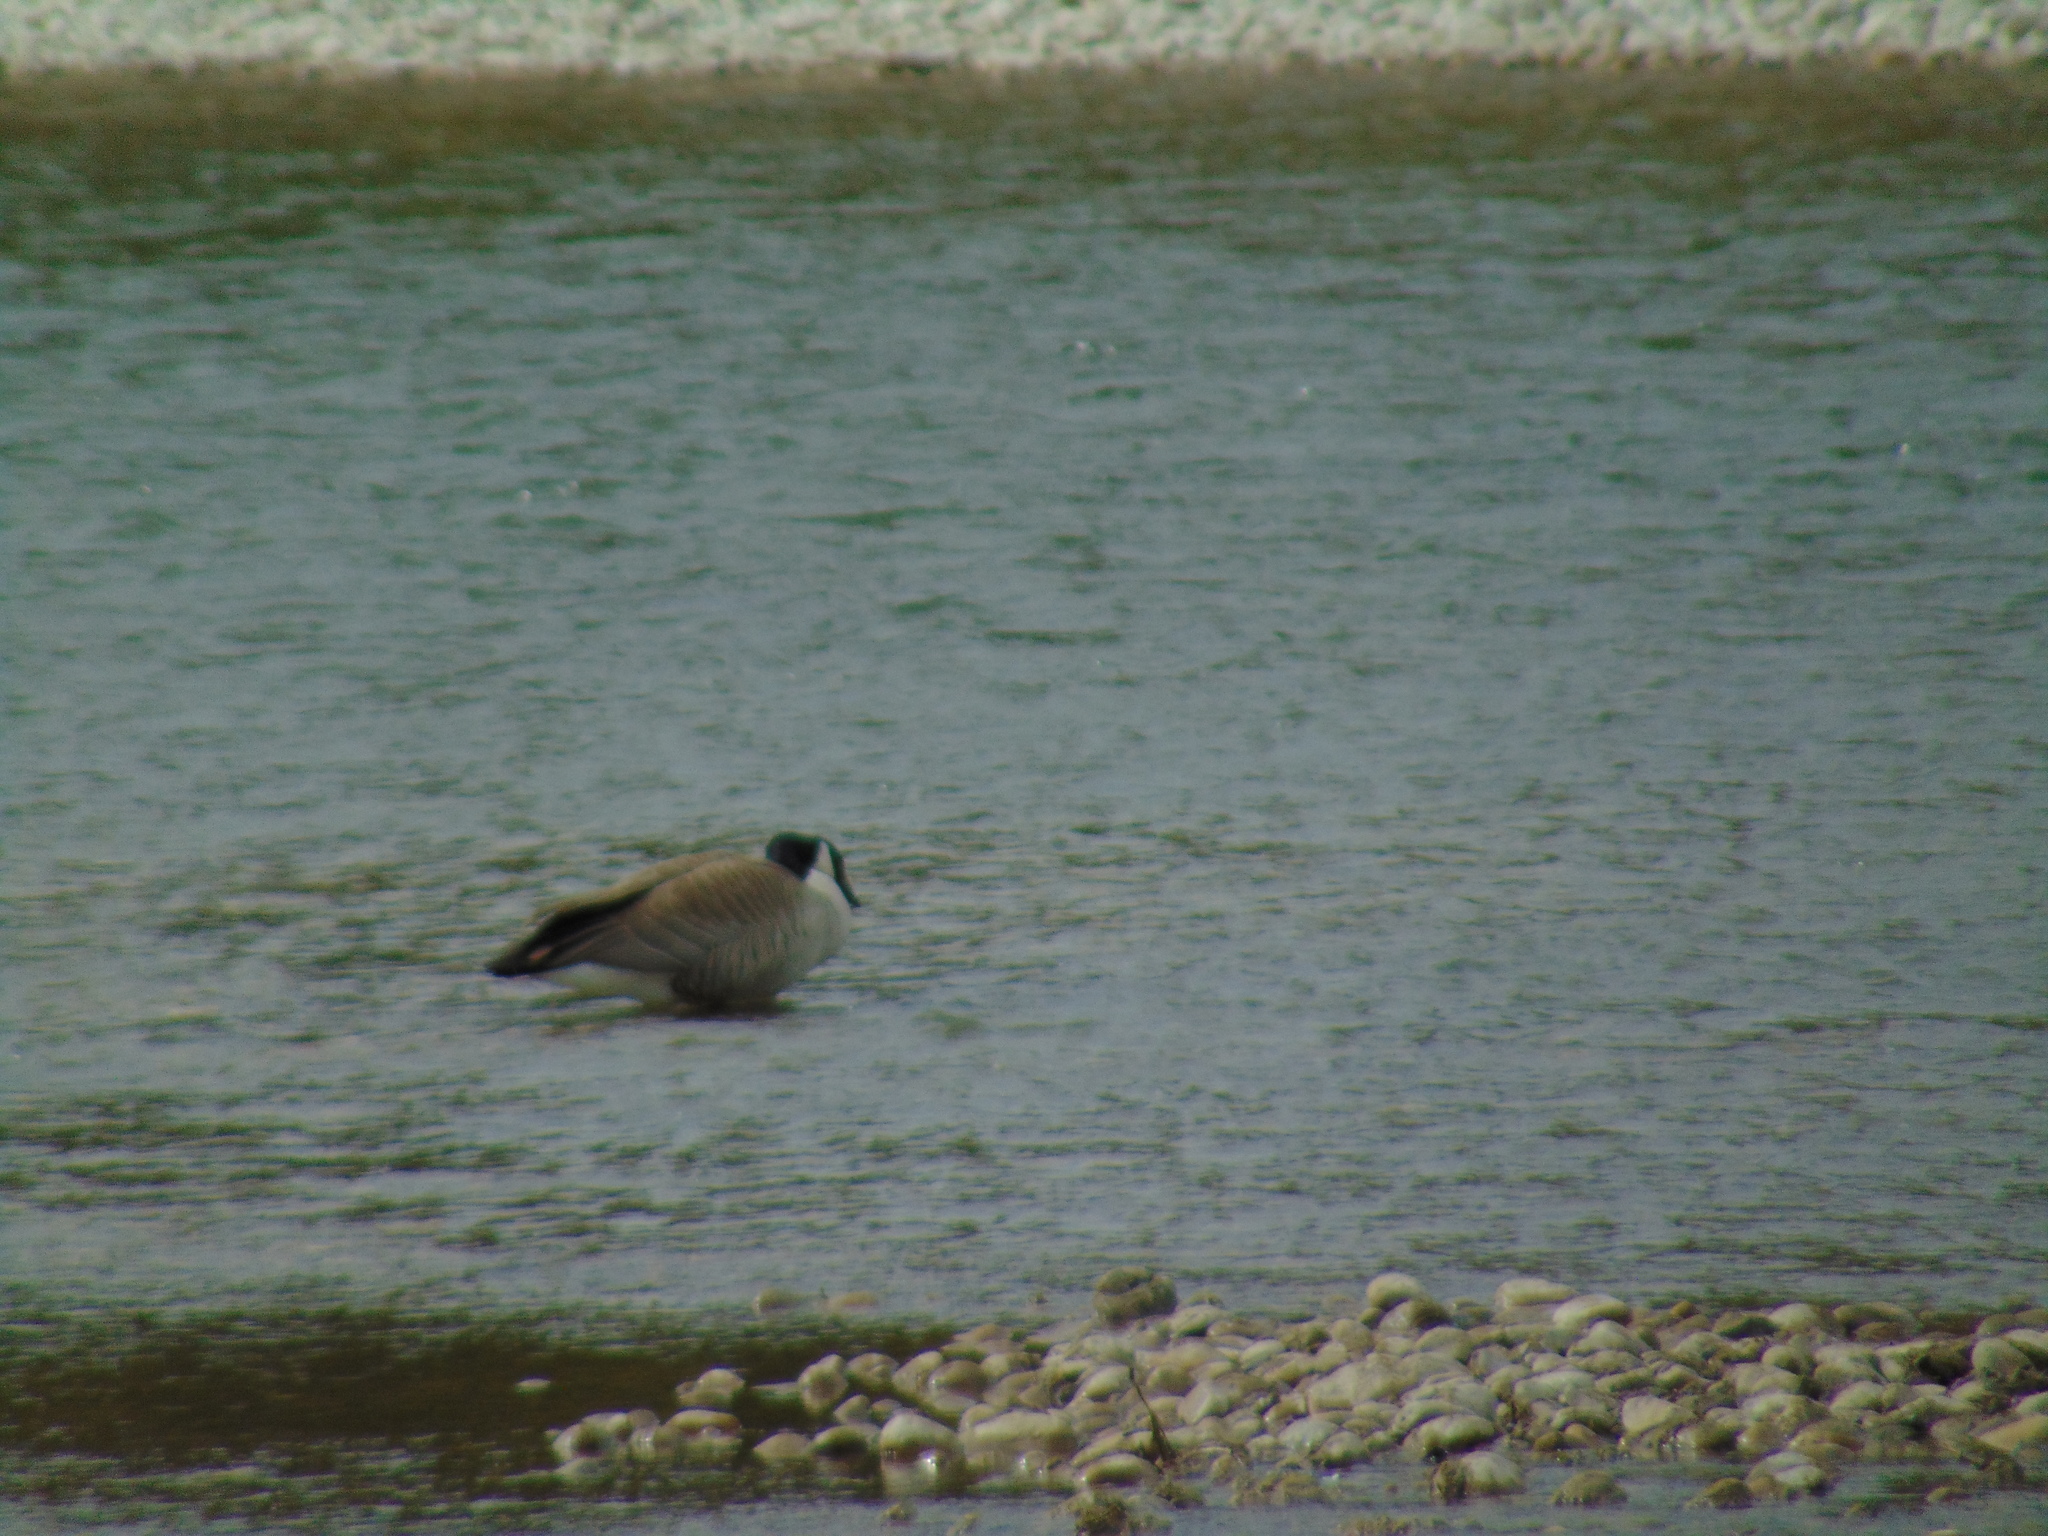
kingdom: Animalia
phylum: Chordata
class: Aves
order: Anseriformes
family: Anatidae
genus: Branta
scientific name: Branta canadensis
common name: Canada goose
